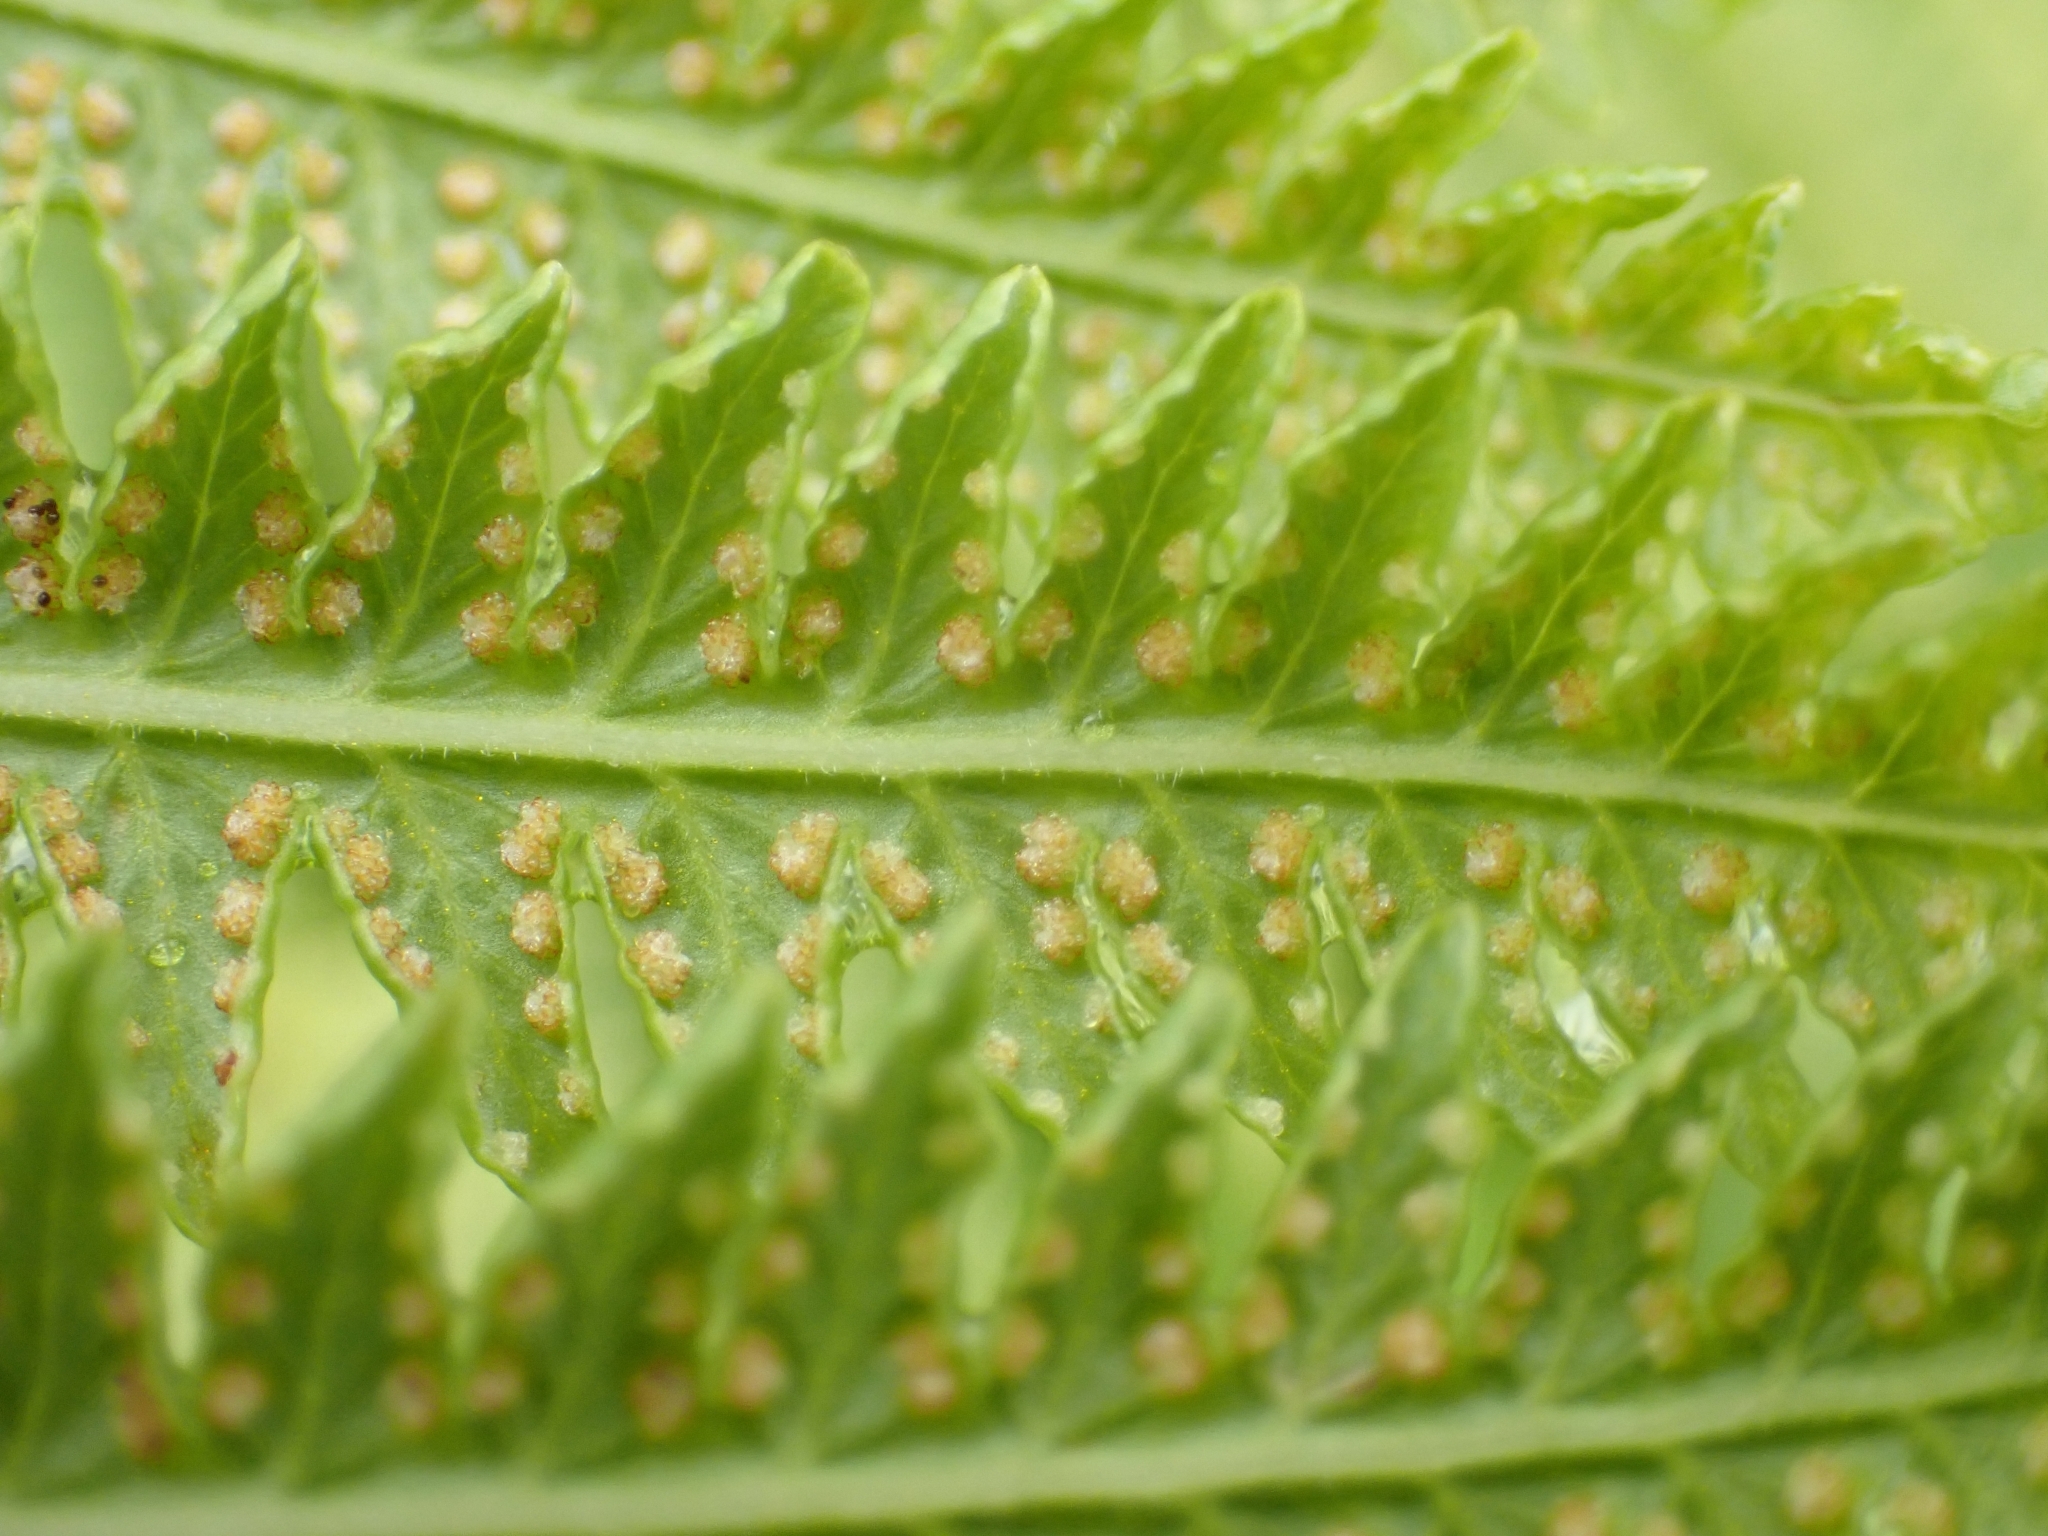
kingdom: Plantae
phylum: Tracheophyta
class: Polypodiopsida
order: Polypodiales
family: Thelypteridaceae
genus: Oreopteris
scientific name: Oreopteris limbosperma
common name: Lemon-scented fern
